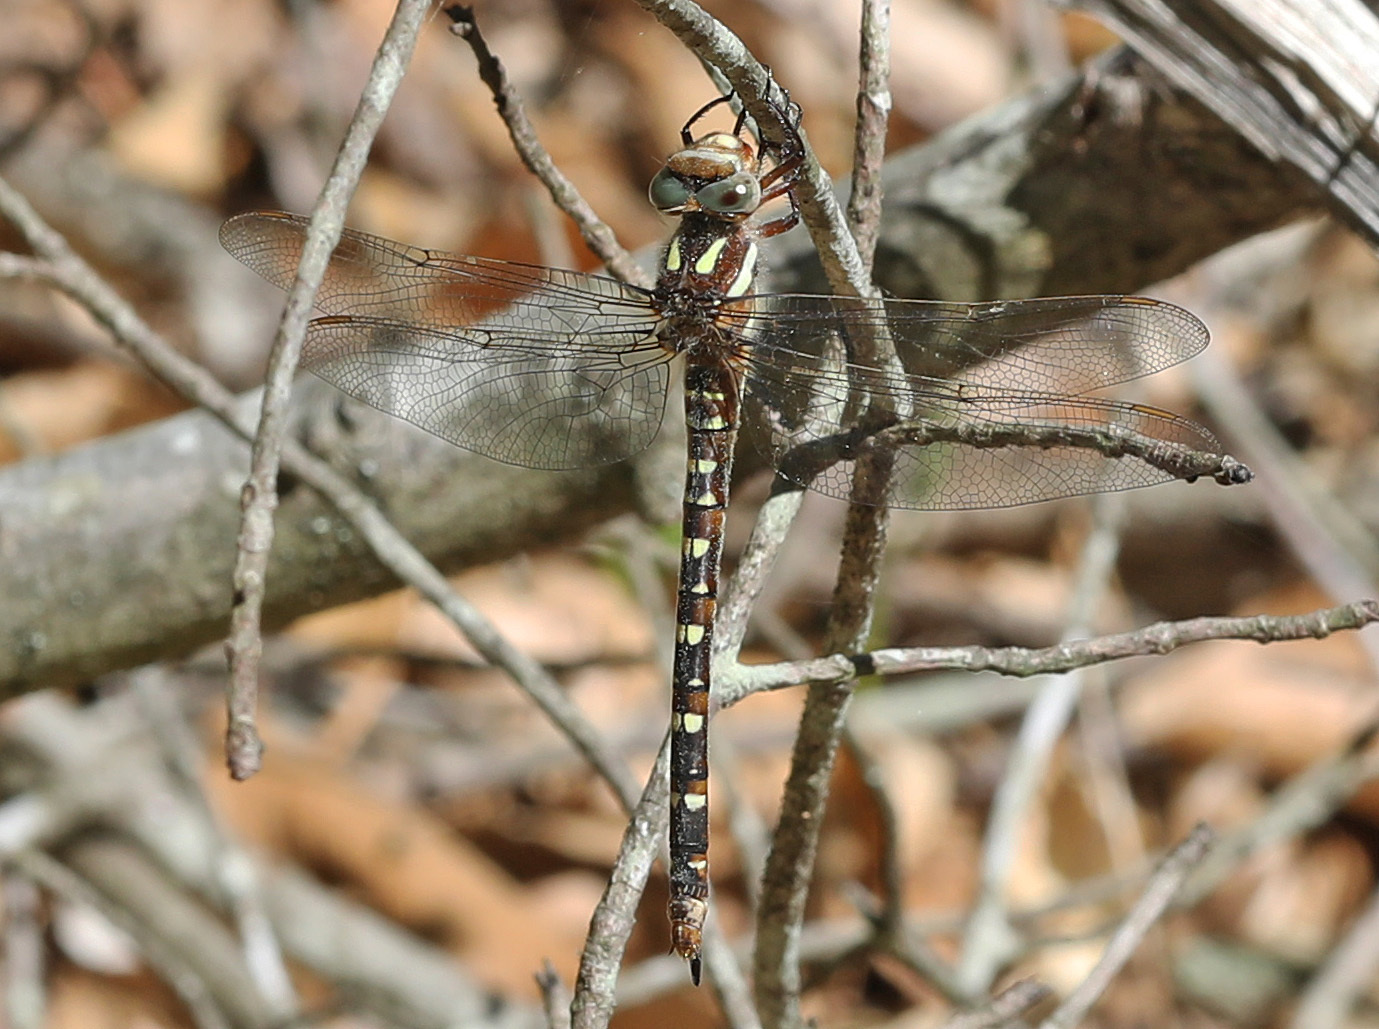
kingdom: Animalia
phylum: Arthropoda
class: Insecta
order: Odonata
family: Cordulegastridae
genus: Cordulegaster
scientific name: Cordulegaster maculata
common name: Twin-spotted spiketail
